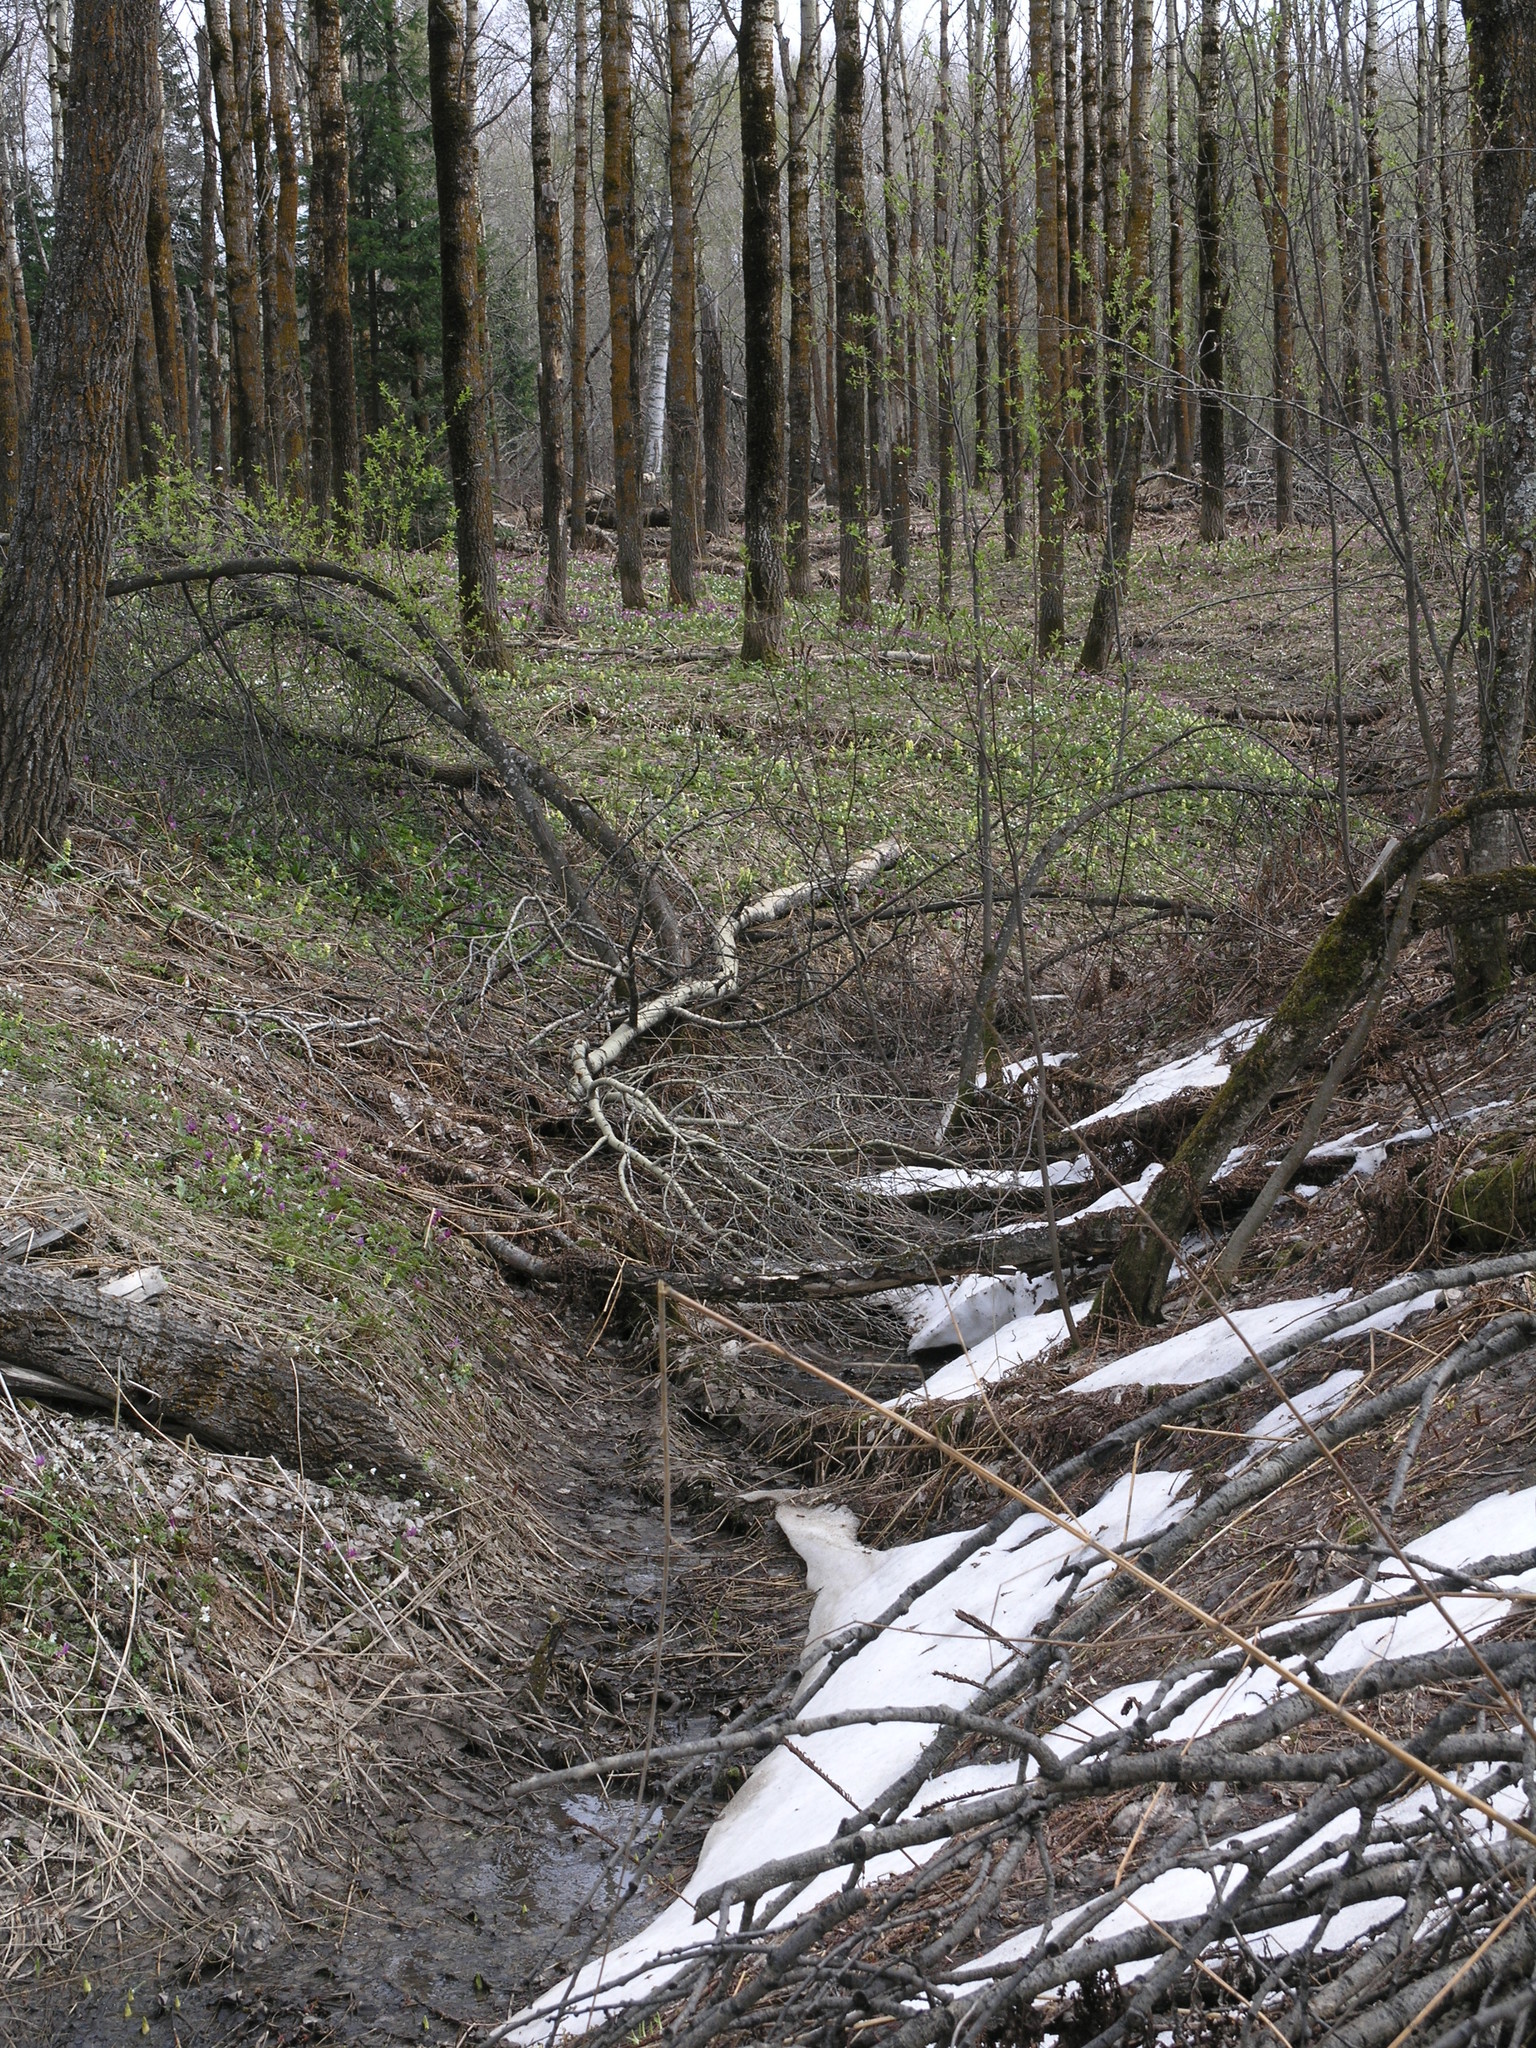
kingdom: Plantae
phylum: Tracheophyta
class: Pinopsida
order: Pinales
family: Pinaceae
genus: Abies
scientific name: Abies sibirica
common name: Siberian fir
